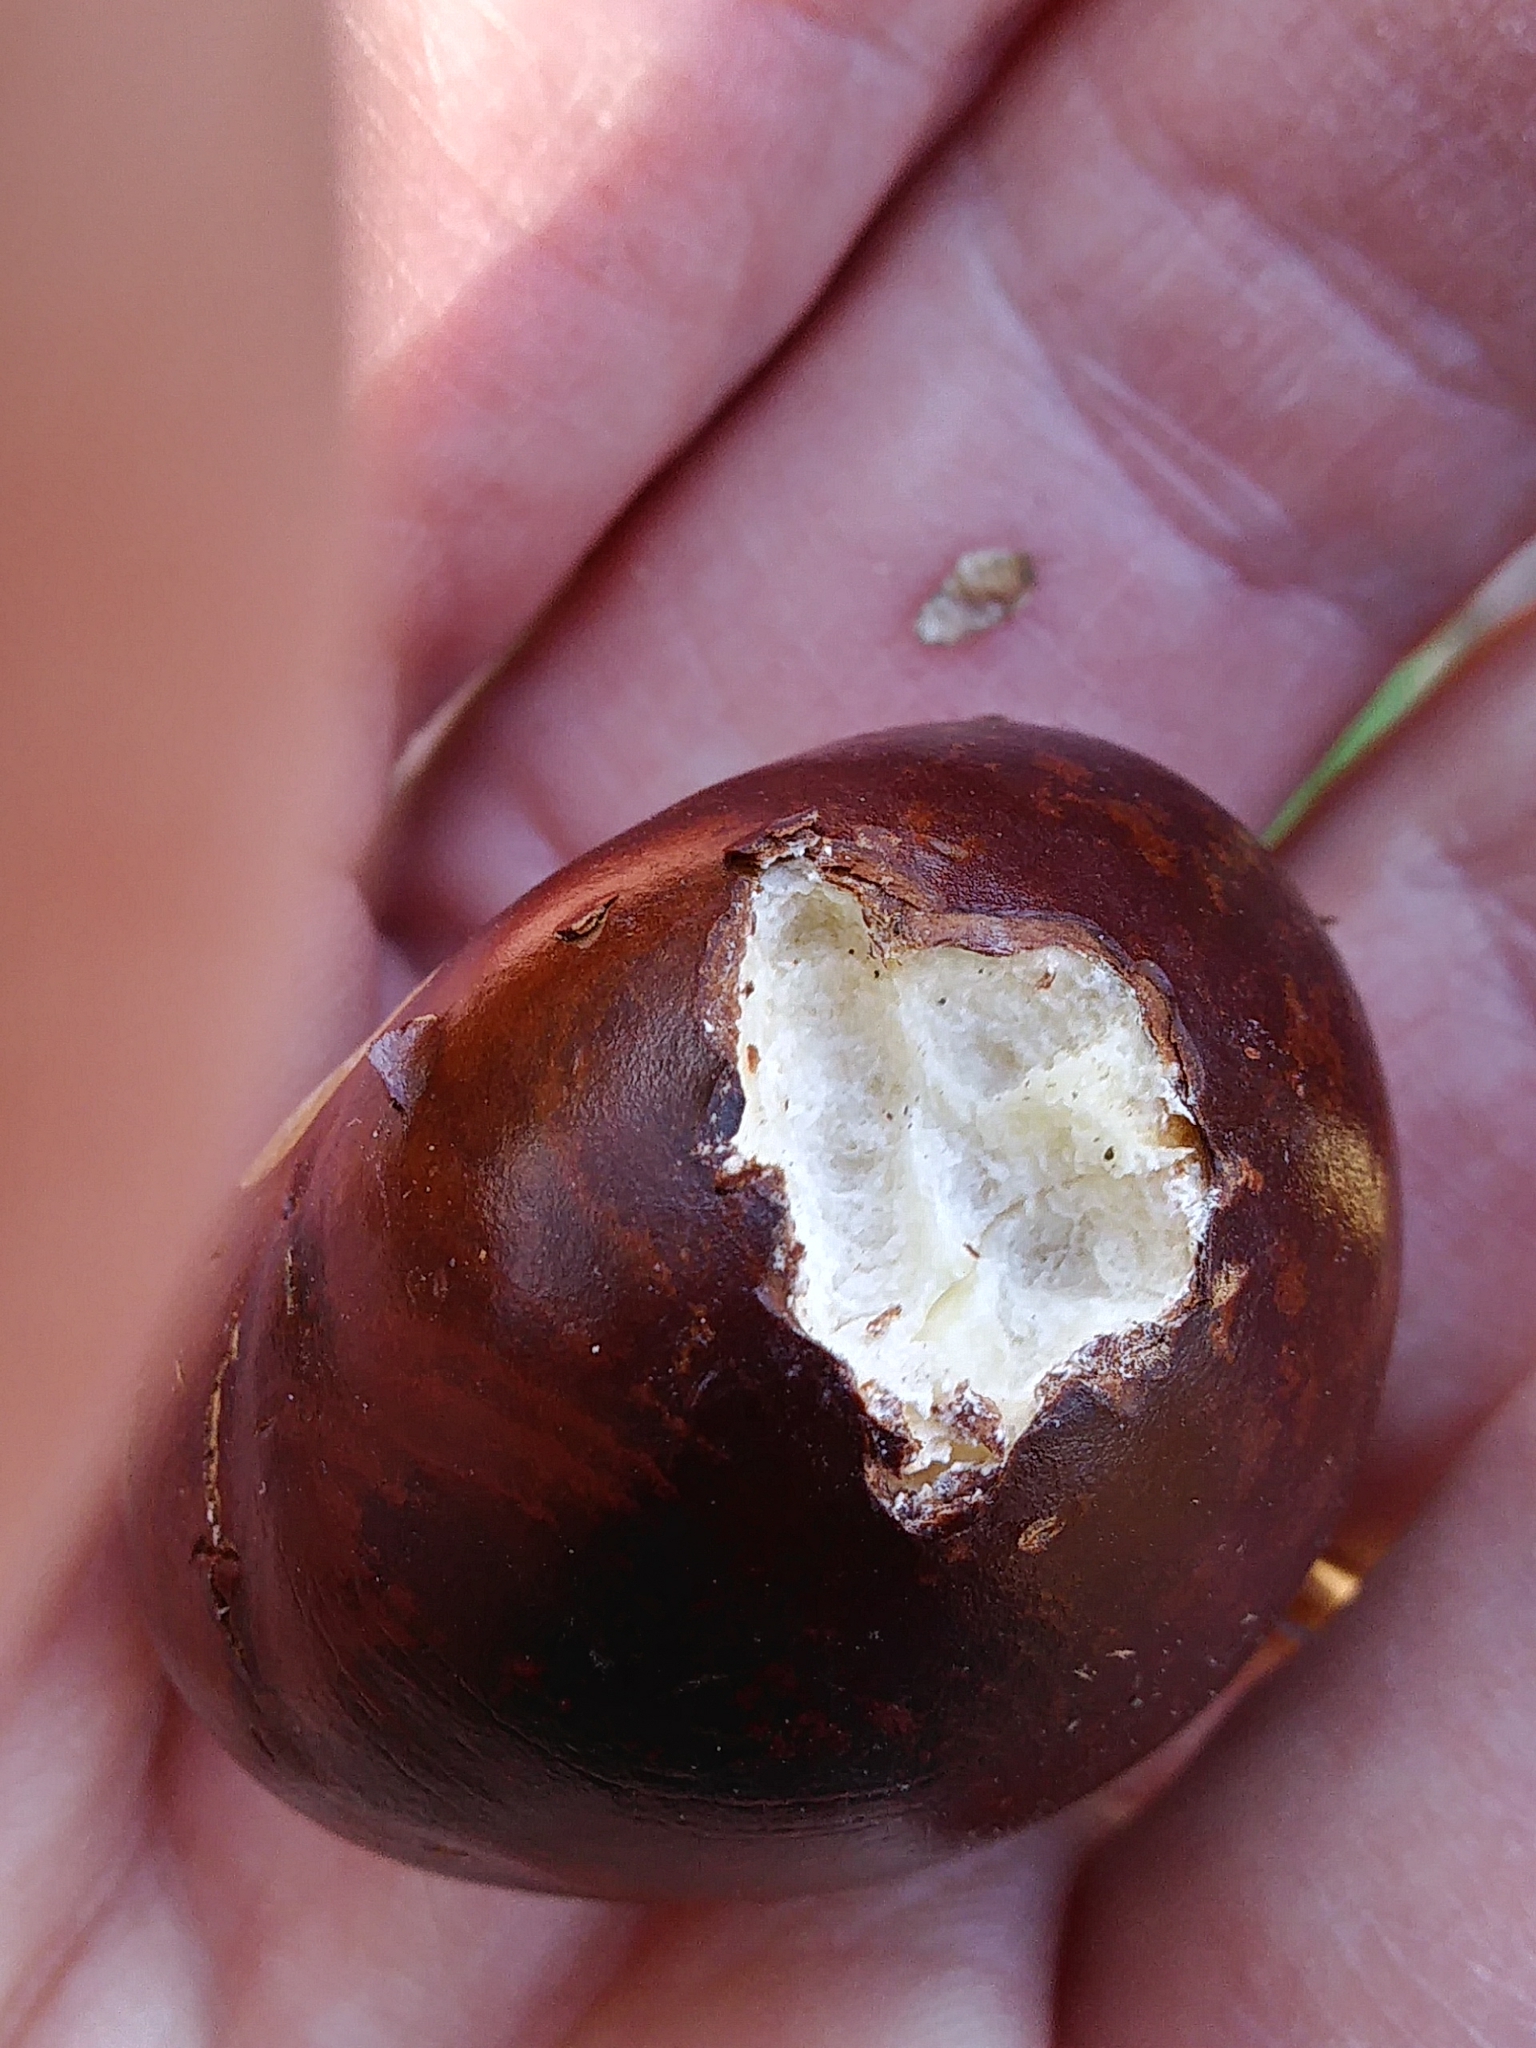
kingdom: Plantae
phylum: Tracheophyta
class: Magnoliopsida
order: Sapindales
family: Sapindaceae
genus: Aesculus
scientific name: Aesculus hippocastanum
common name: Horse-chestnut
